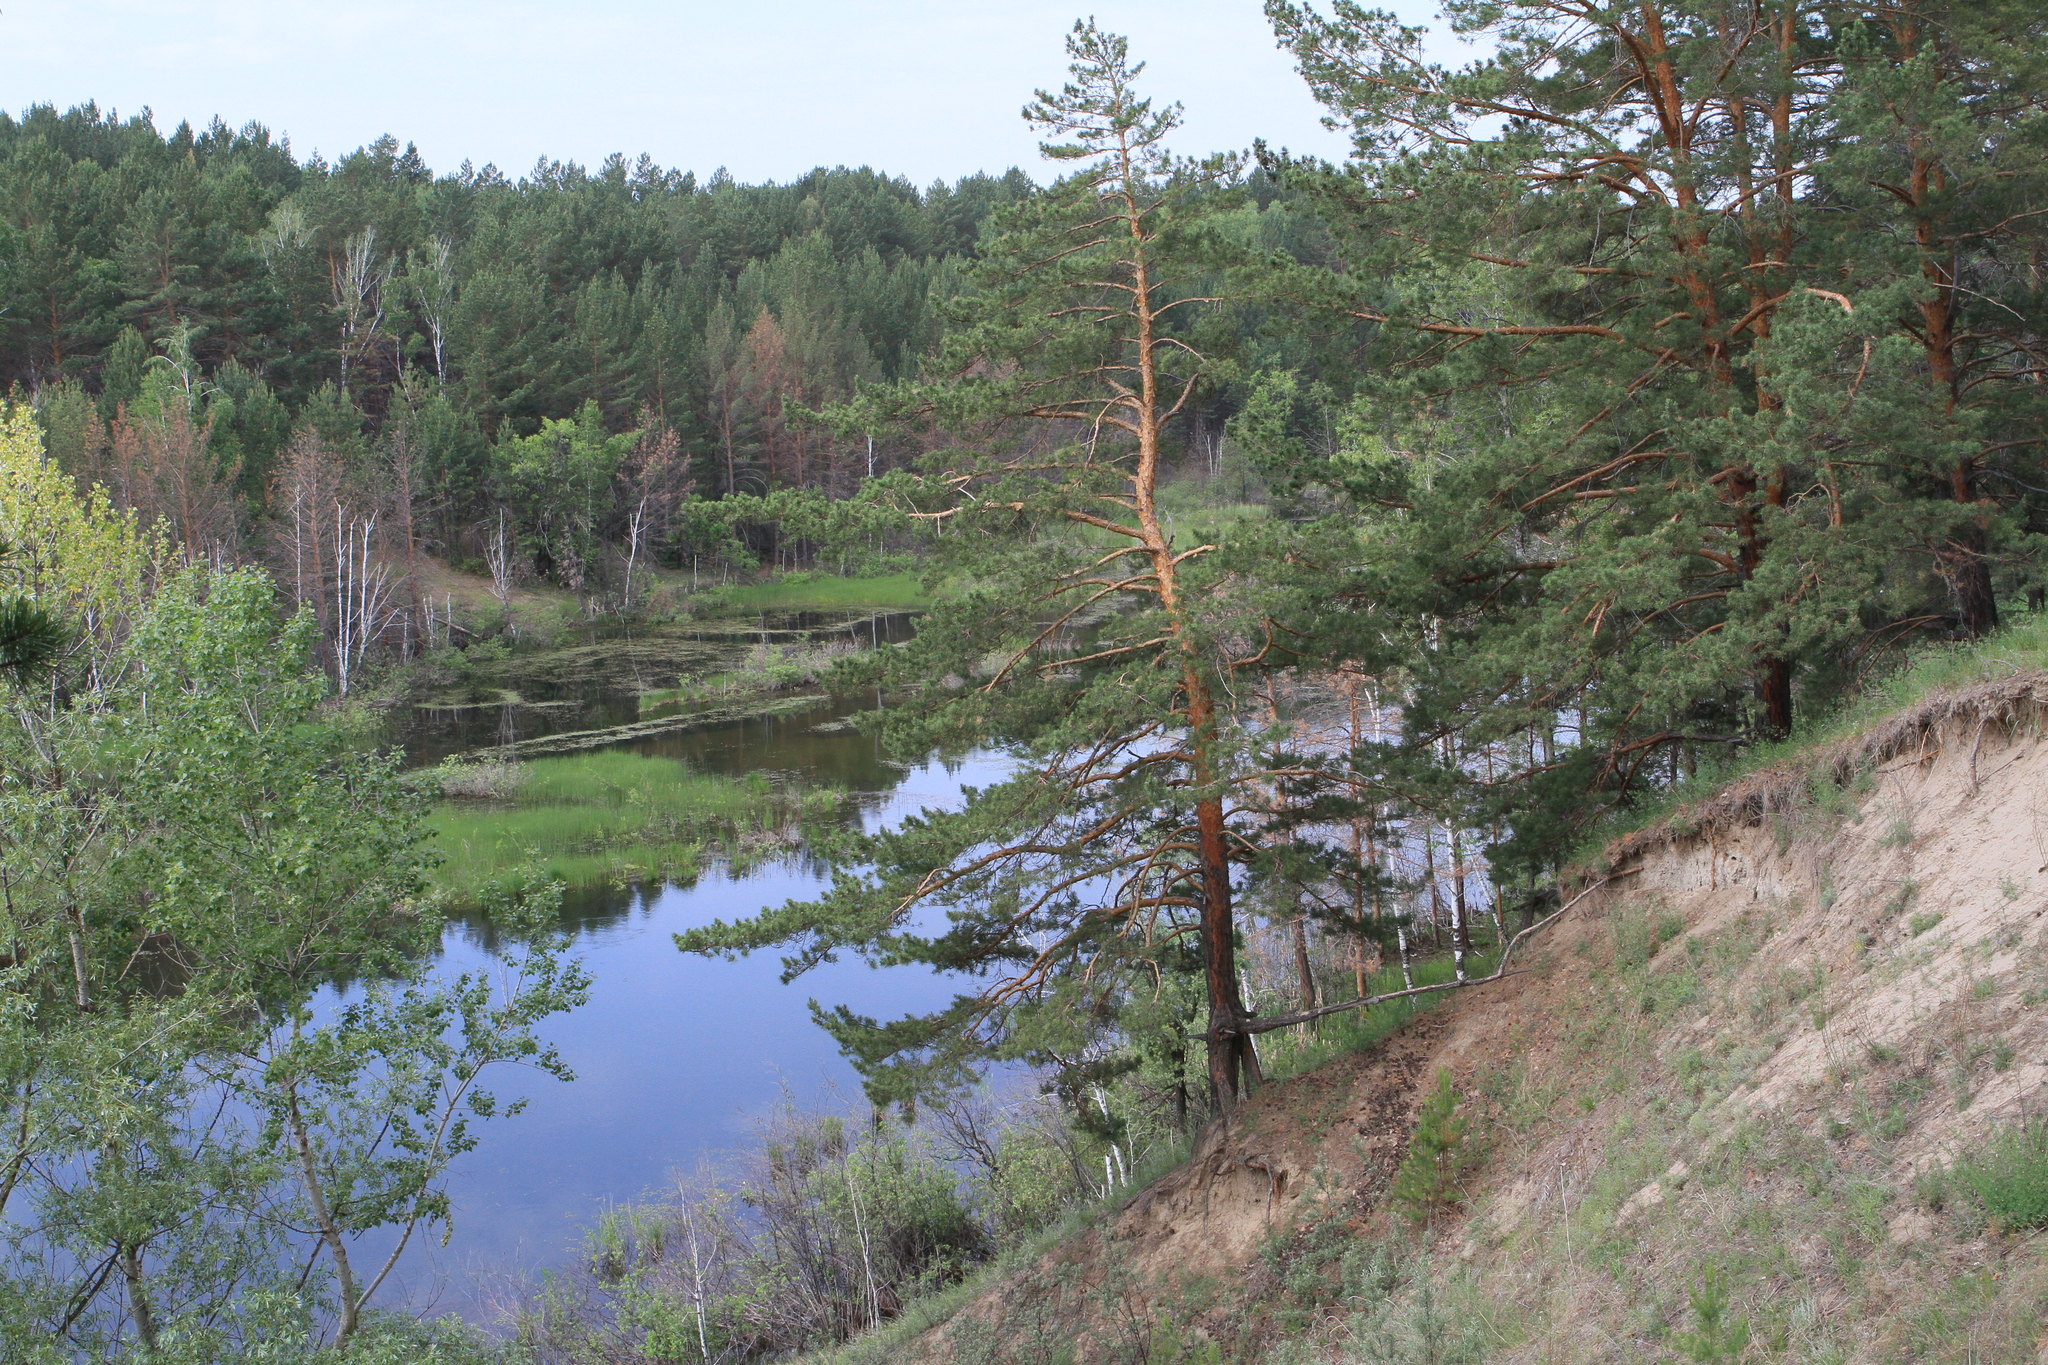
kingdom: Plantae
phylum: Tracheophyta
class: Pinopsida
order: Pinales
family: Pinaceae
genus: Pinus
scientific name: Pinus sylvestris
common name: Scots pine
